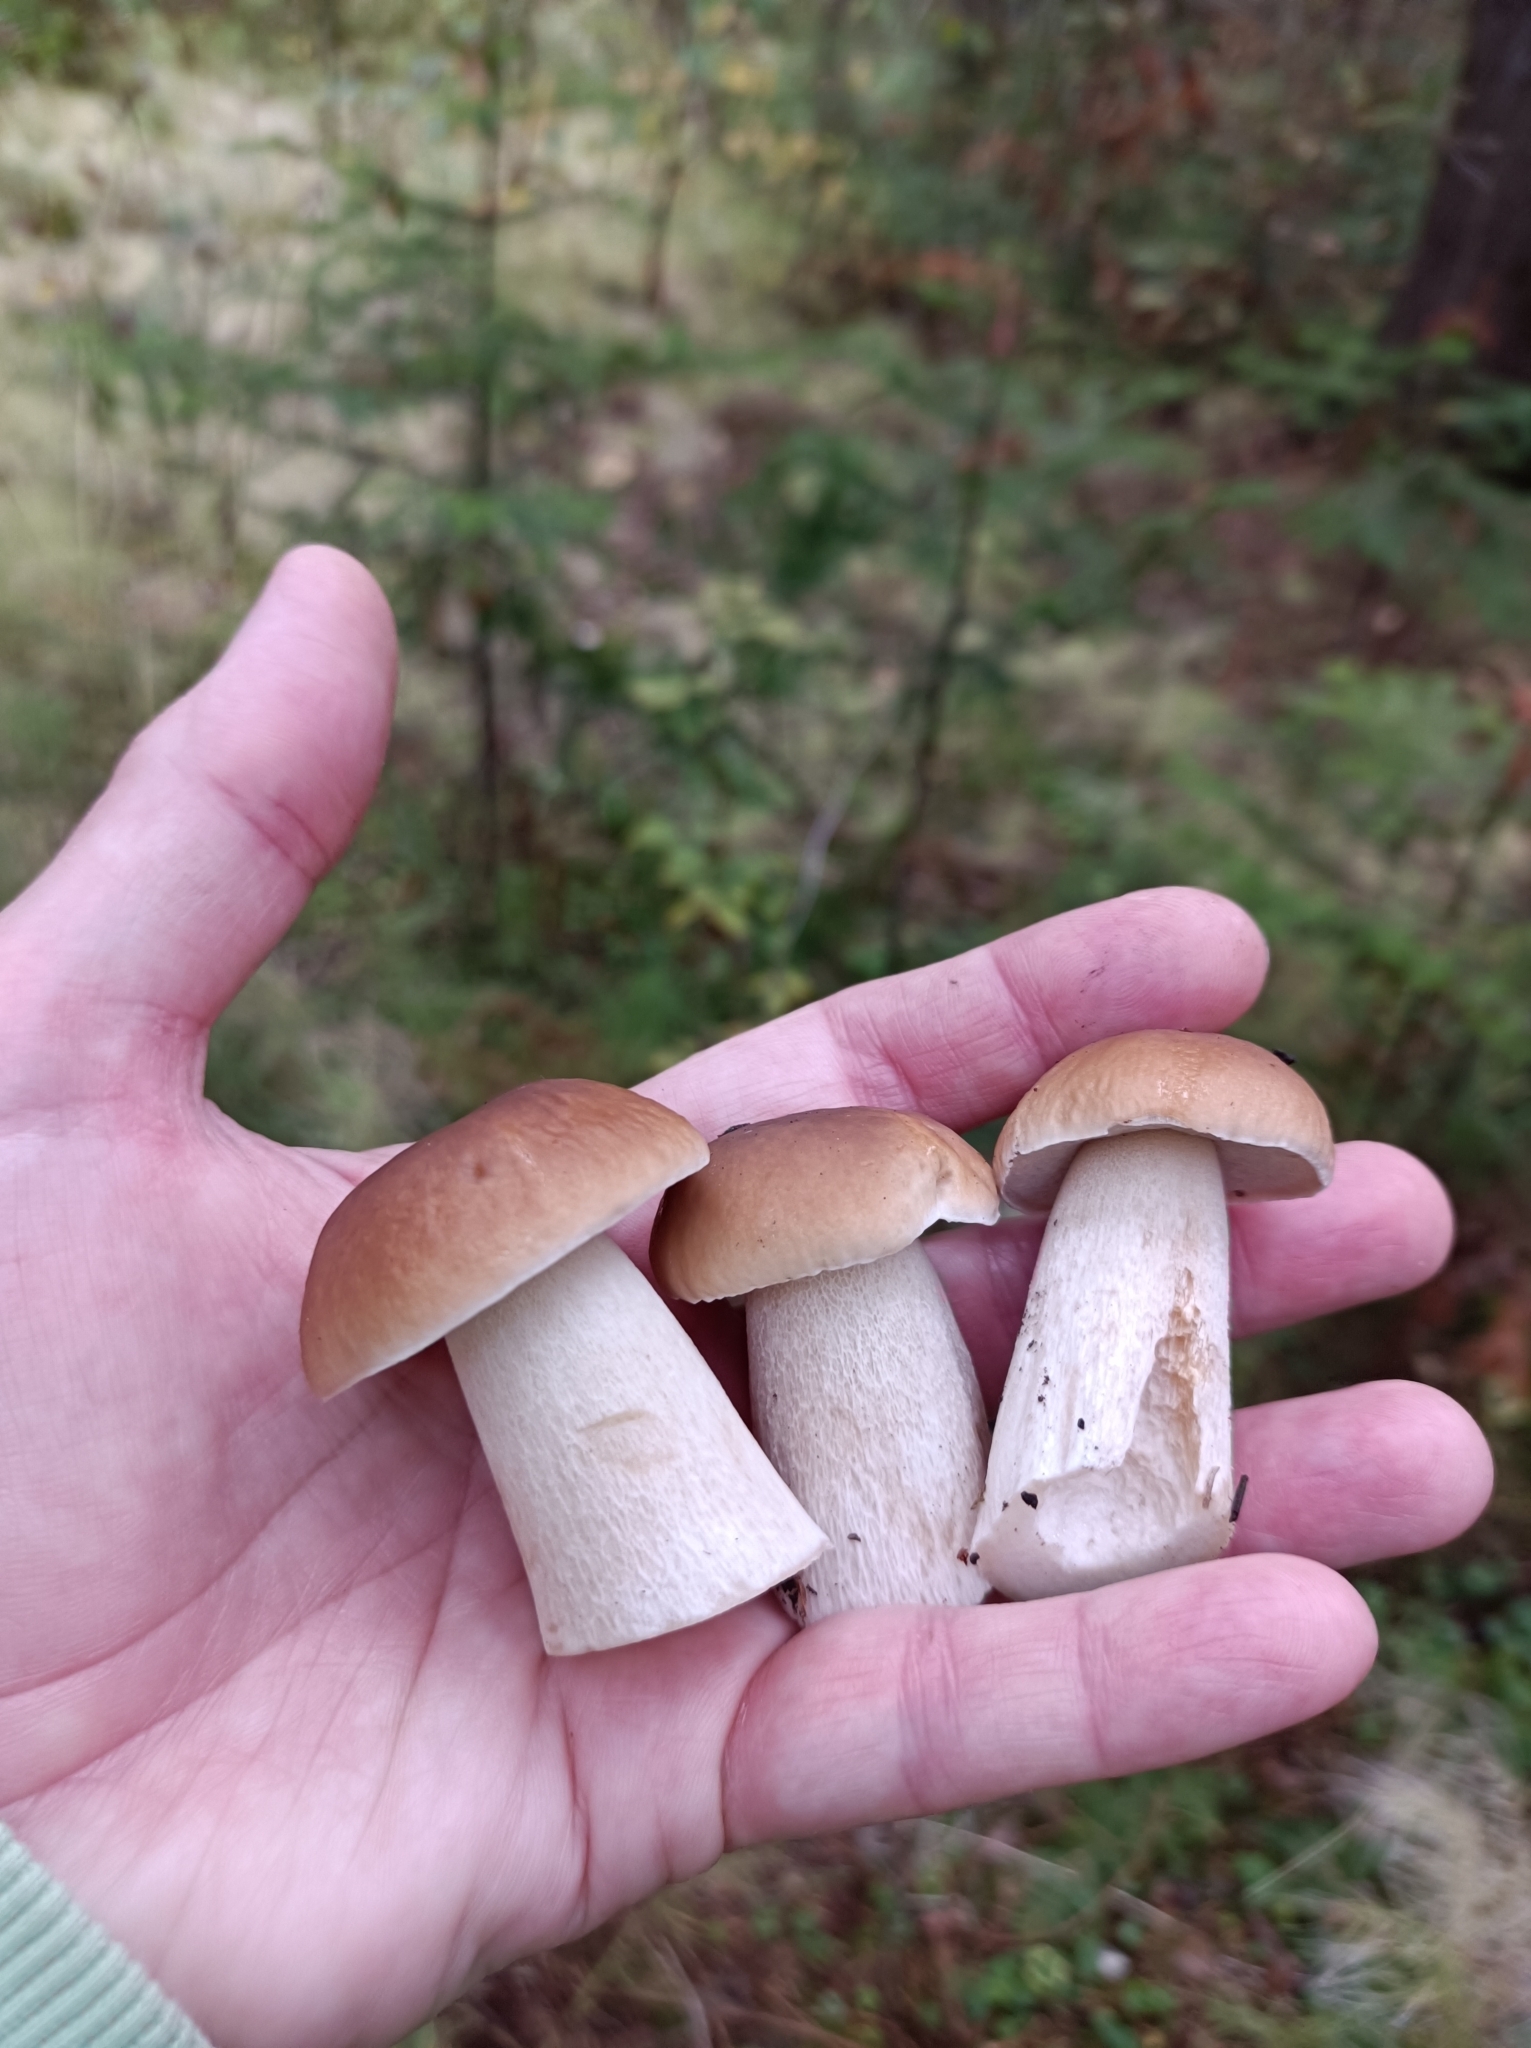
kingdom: Fungi
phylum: Basidiomycota
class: Agaricomycetes
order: Boletales
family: Boletaceae
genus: Boletus
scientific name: Boletus edulis
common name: Cep
